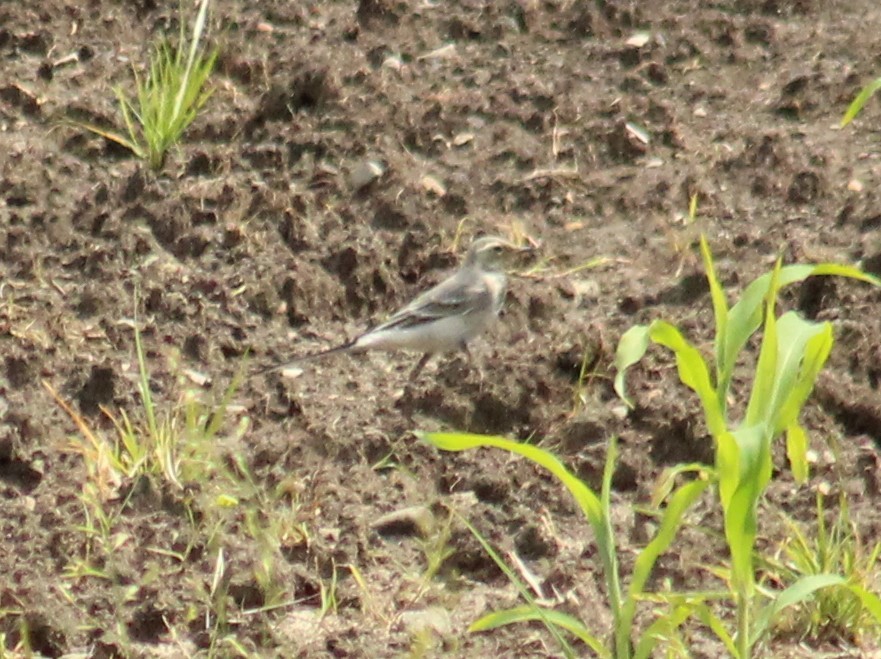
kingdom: Animalia
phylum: Chordata
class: Aves
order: Passeriformes
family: Motacillidae
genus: Motacilla
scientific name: Motacilla alba
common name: White wagtail
